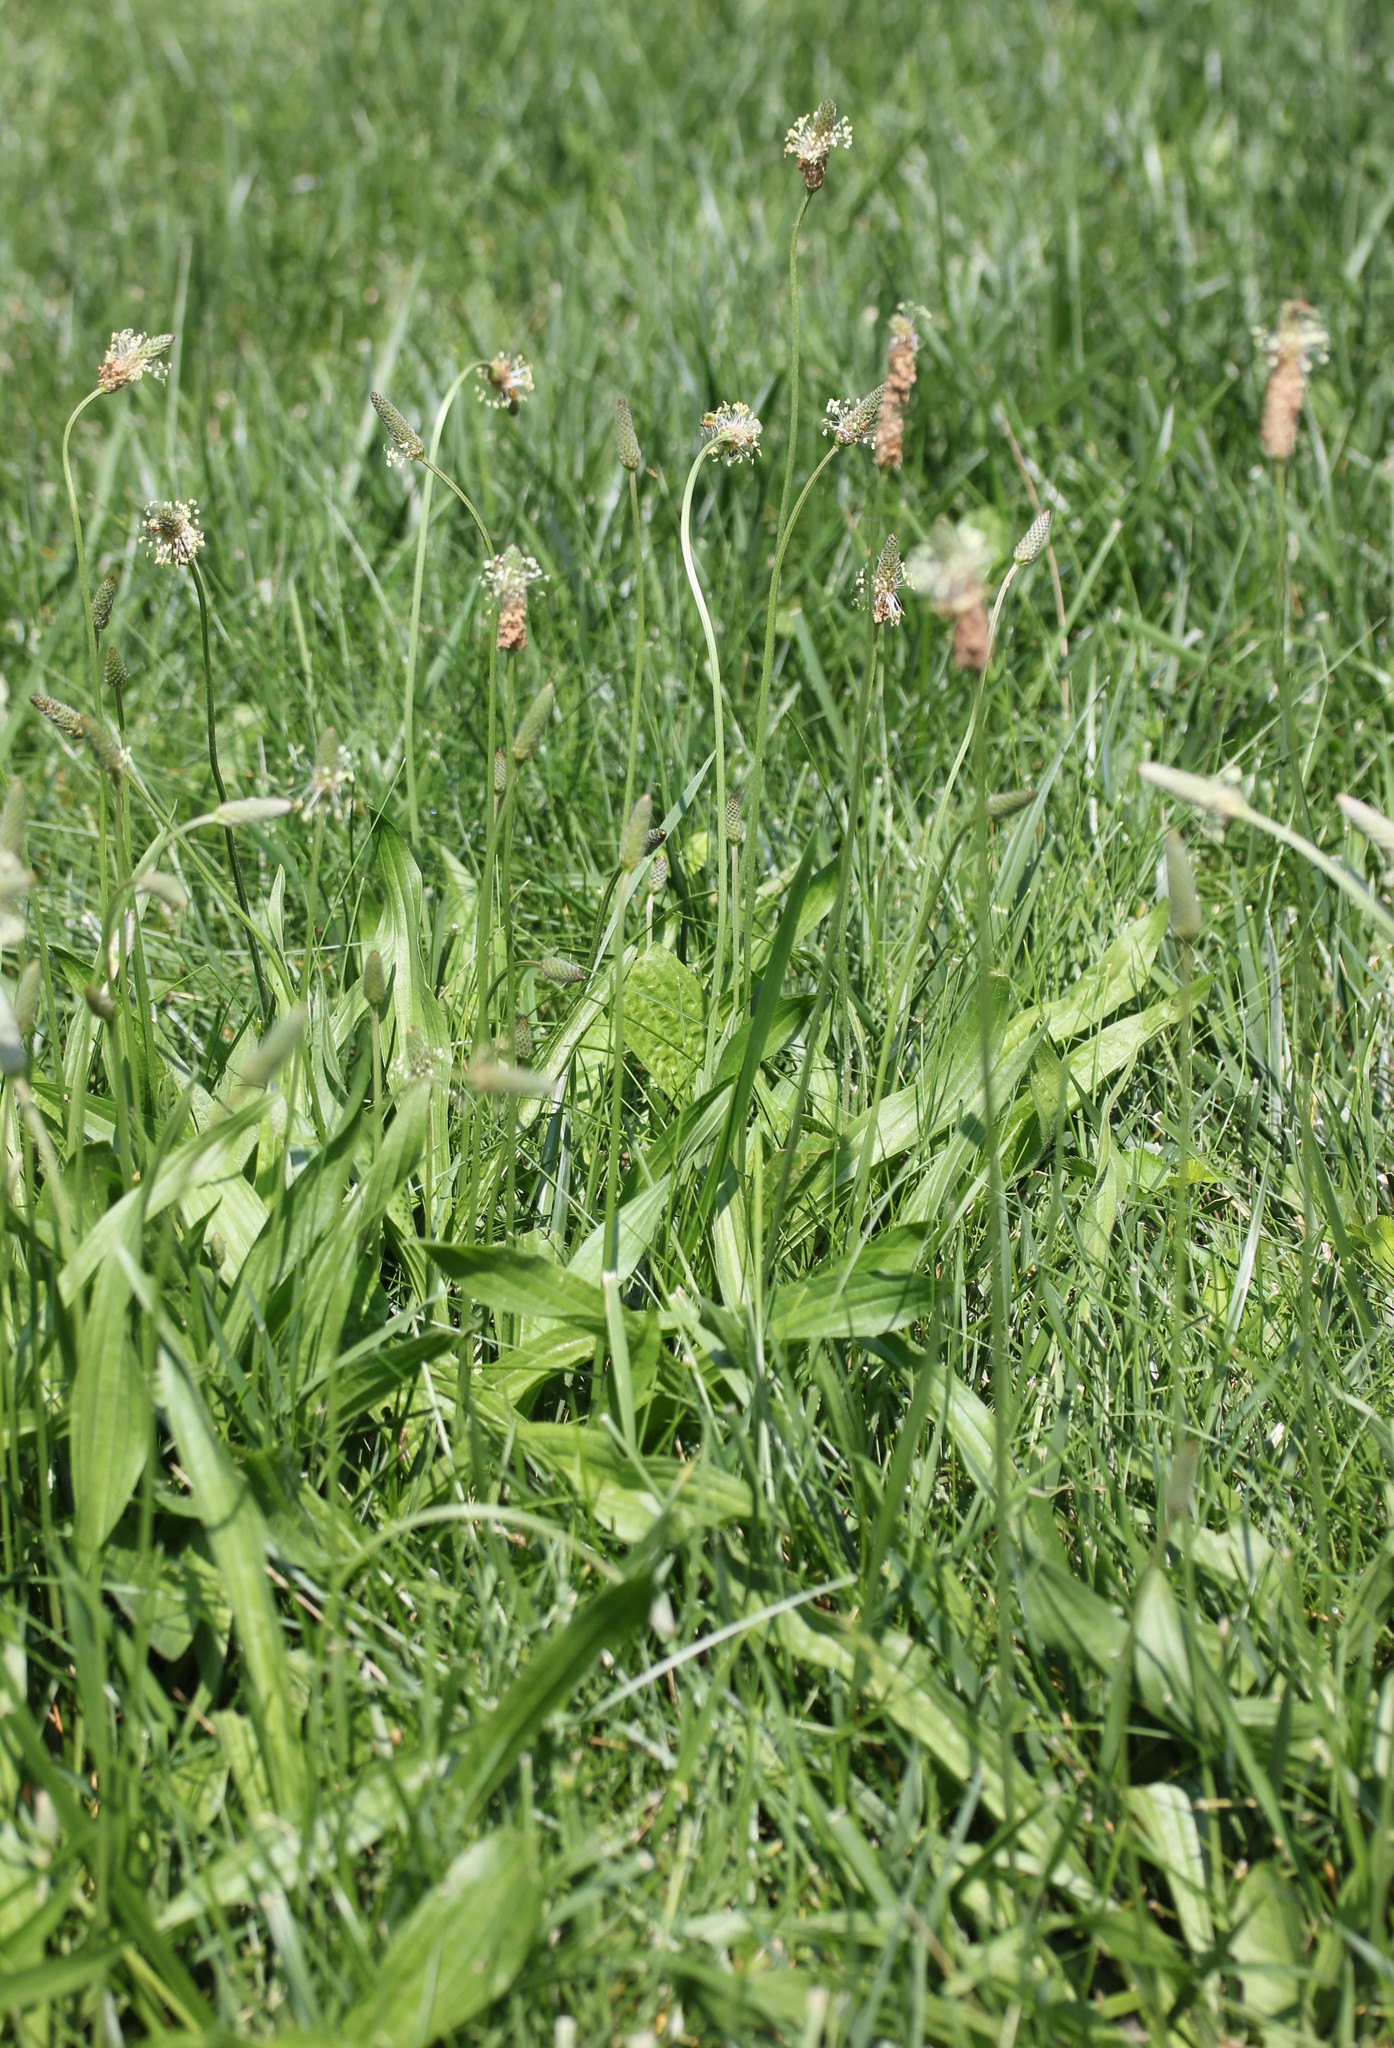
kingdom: Plantae
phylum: Tracheophyta
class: Magnoliopsida
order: Lamiales
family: Plantaginaceae
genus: Plantago
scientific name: Plantago lanceolata
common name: Ribwort plantain
